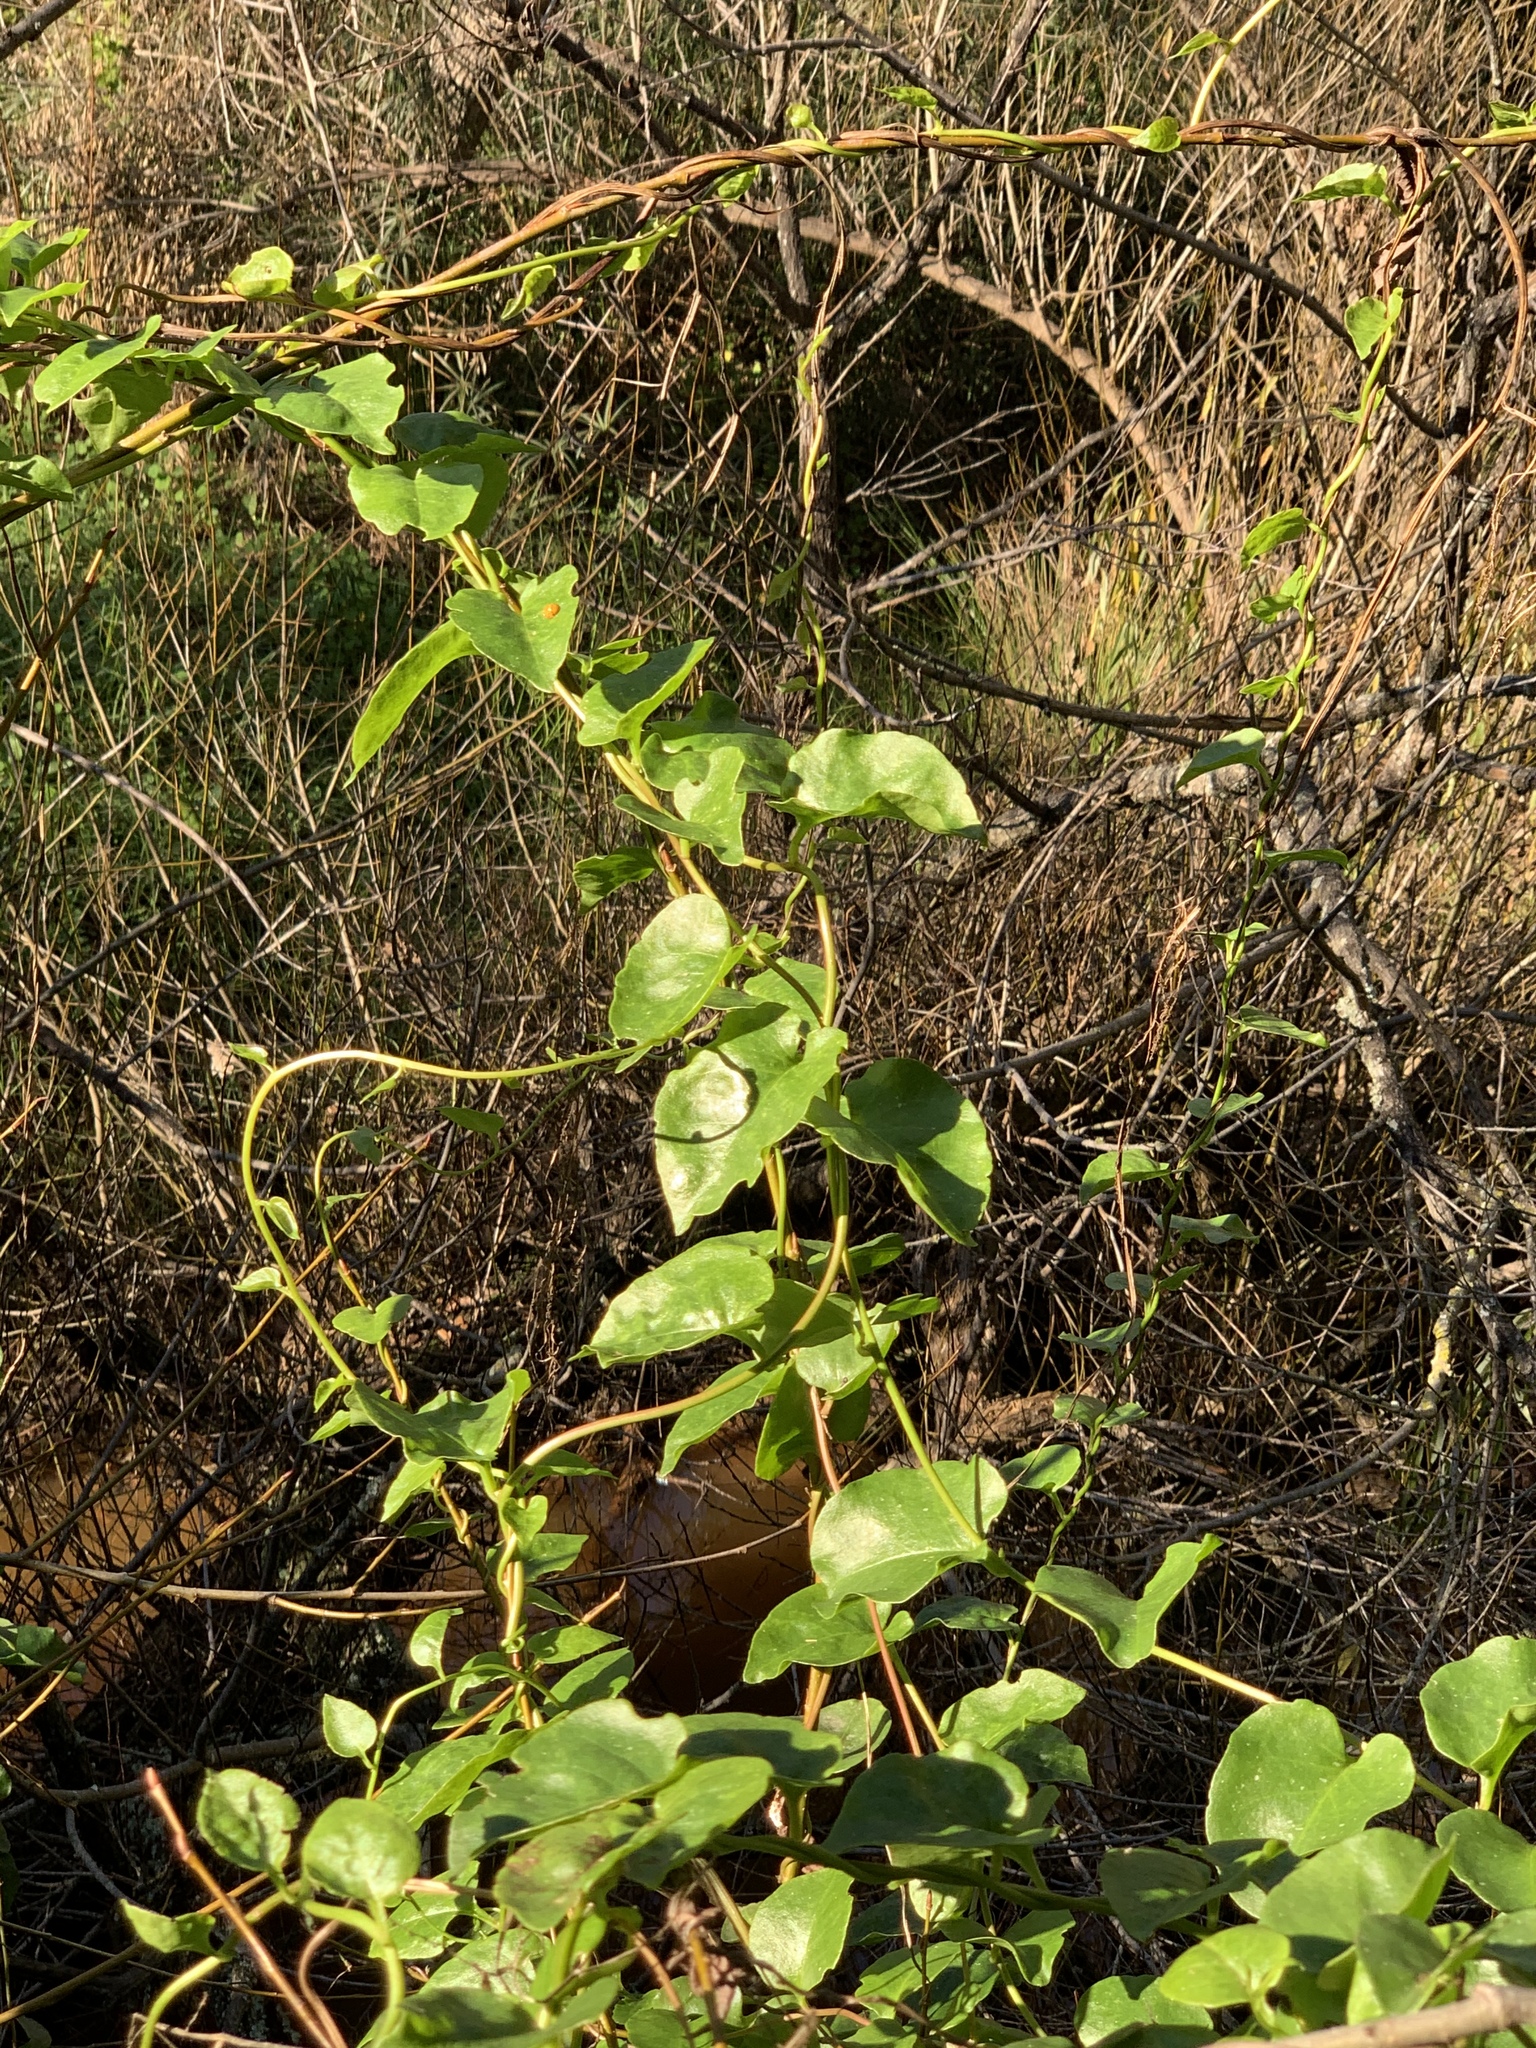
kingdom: Plantae
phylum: Tracheophyta
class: Magnoliopsida
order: Caryophyllales
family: Basellaceae
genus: Anredera
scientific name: Anredera cordifolia
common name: Heartleaf madeiravine
